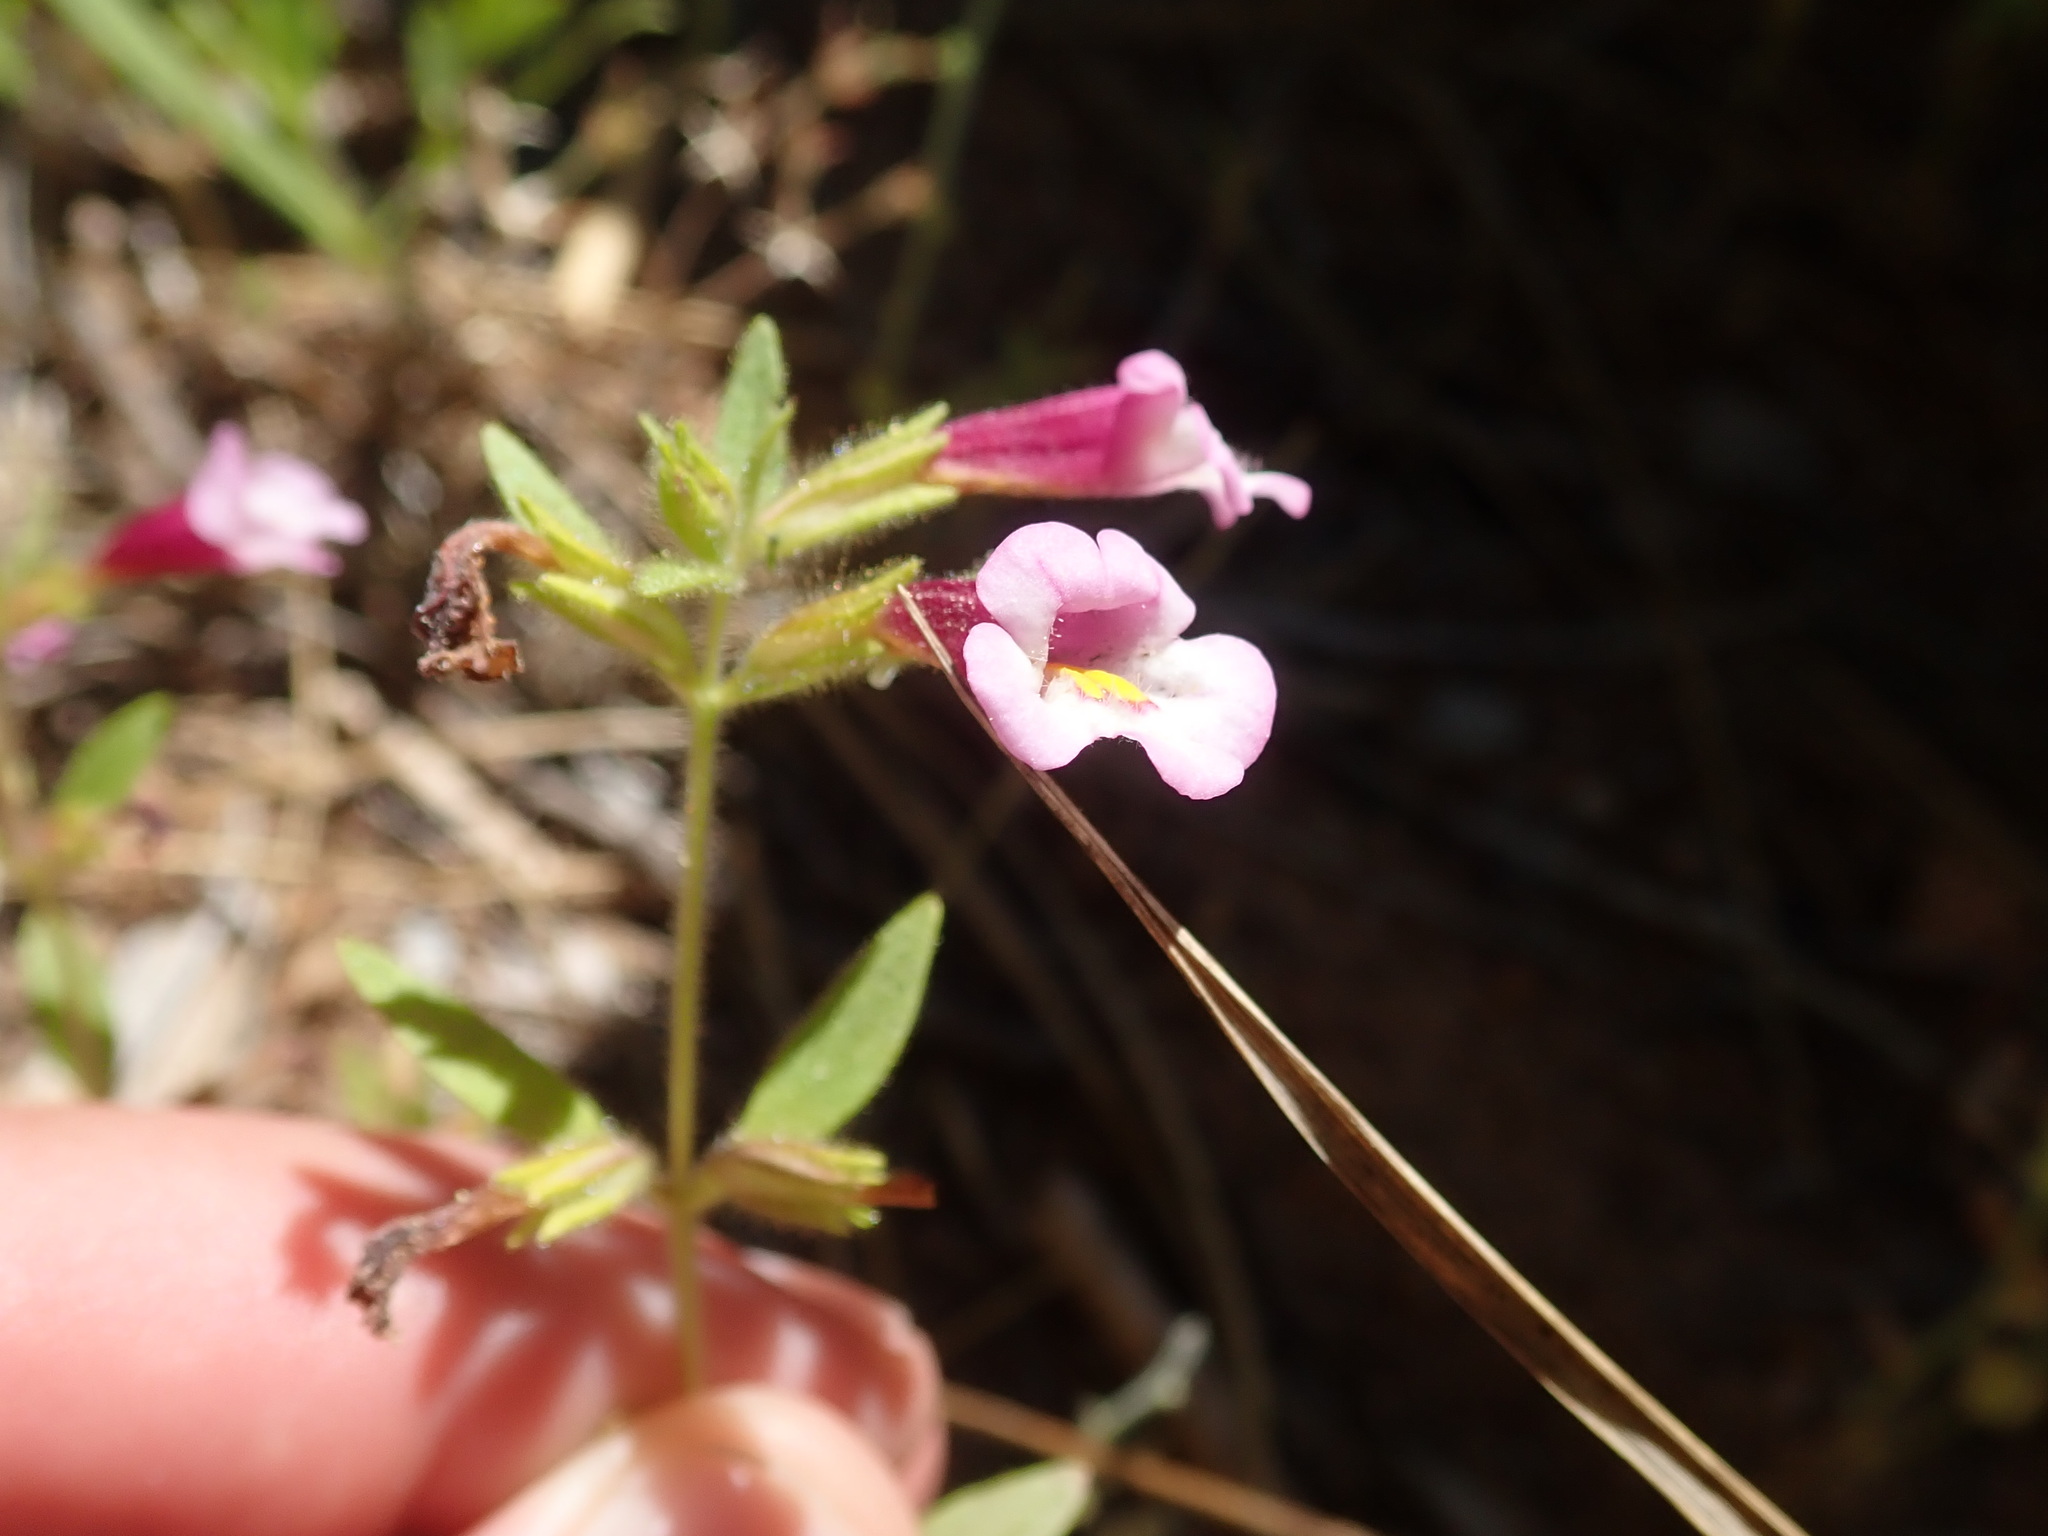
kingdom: Plantae
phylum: Tracheophyta
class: Magnoliopsida
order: Lamiales
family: Phrymaceae
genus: Diplacus
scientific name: Diplacus torreyi
